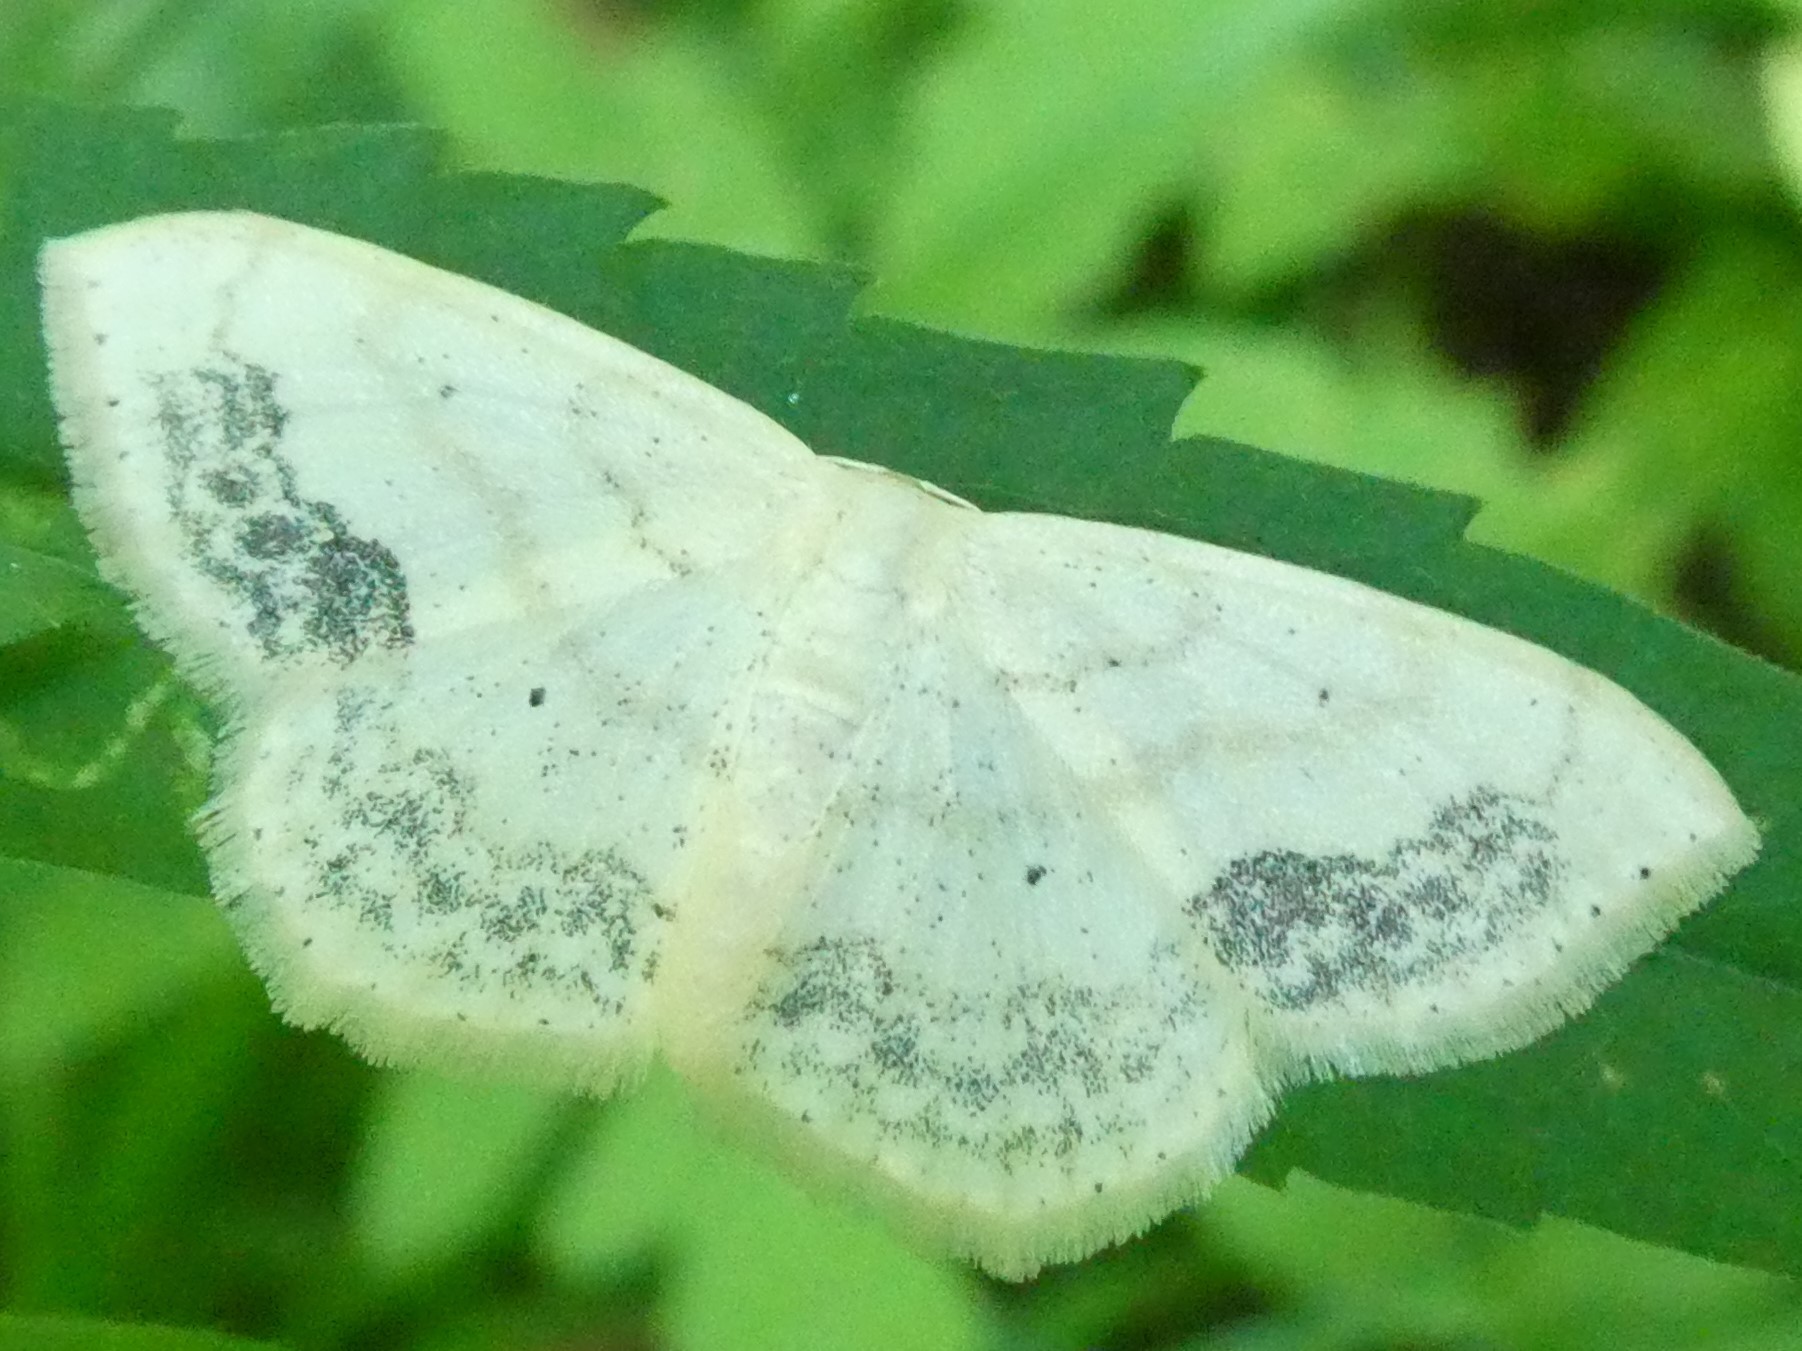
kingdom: Animalia
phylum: Arthropoda
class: Insecta
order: Lepidoptera
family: Geometridae
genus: Scopula
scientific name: Scopula limboundata
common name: Large lace border
